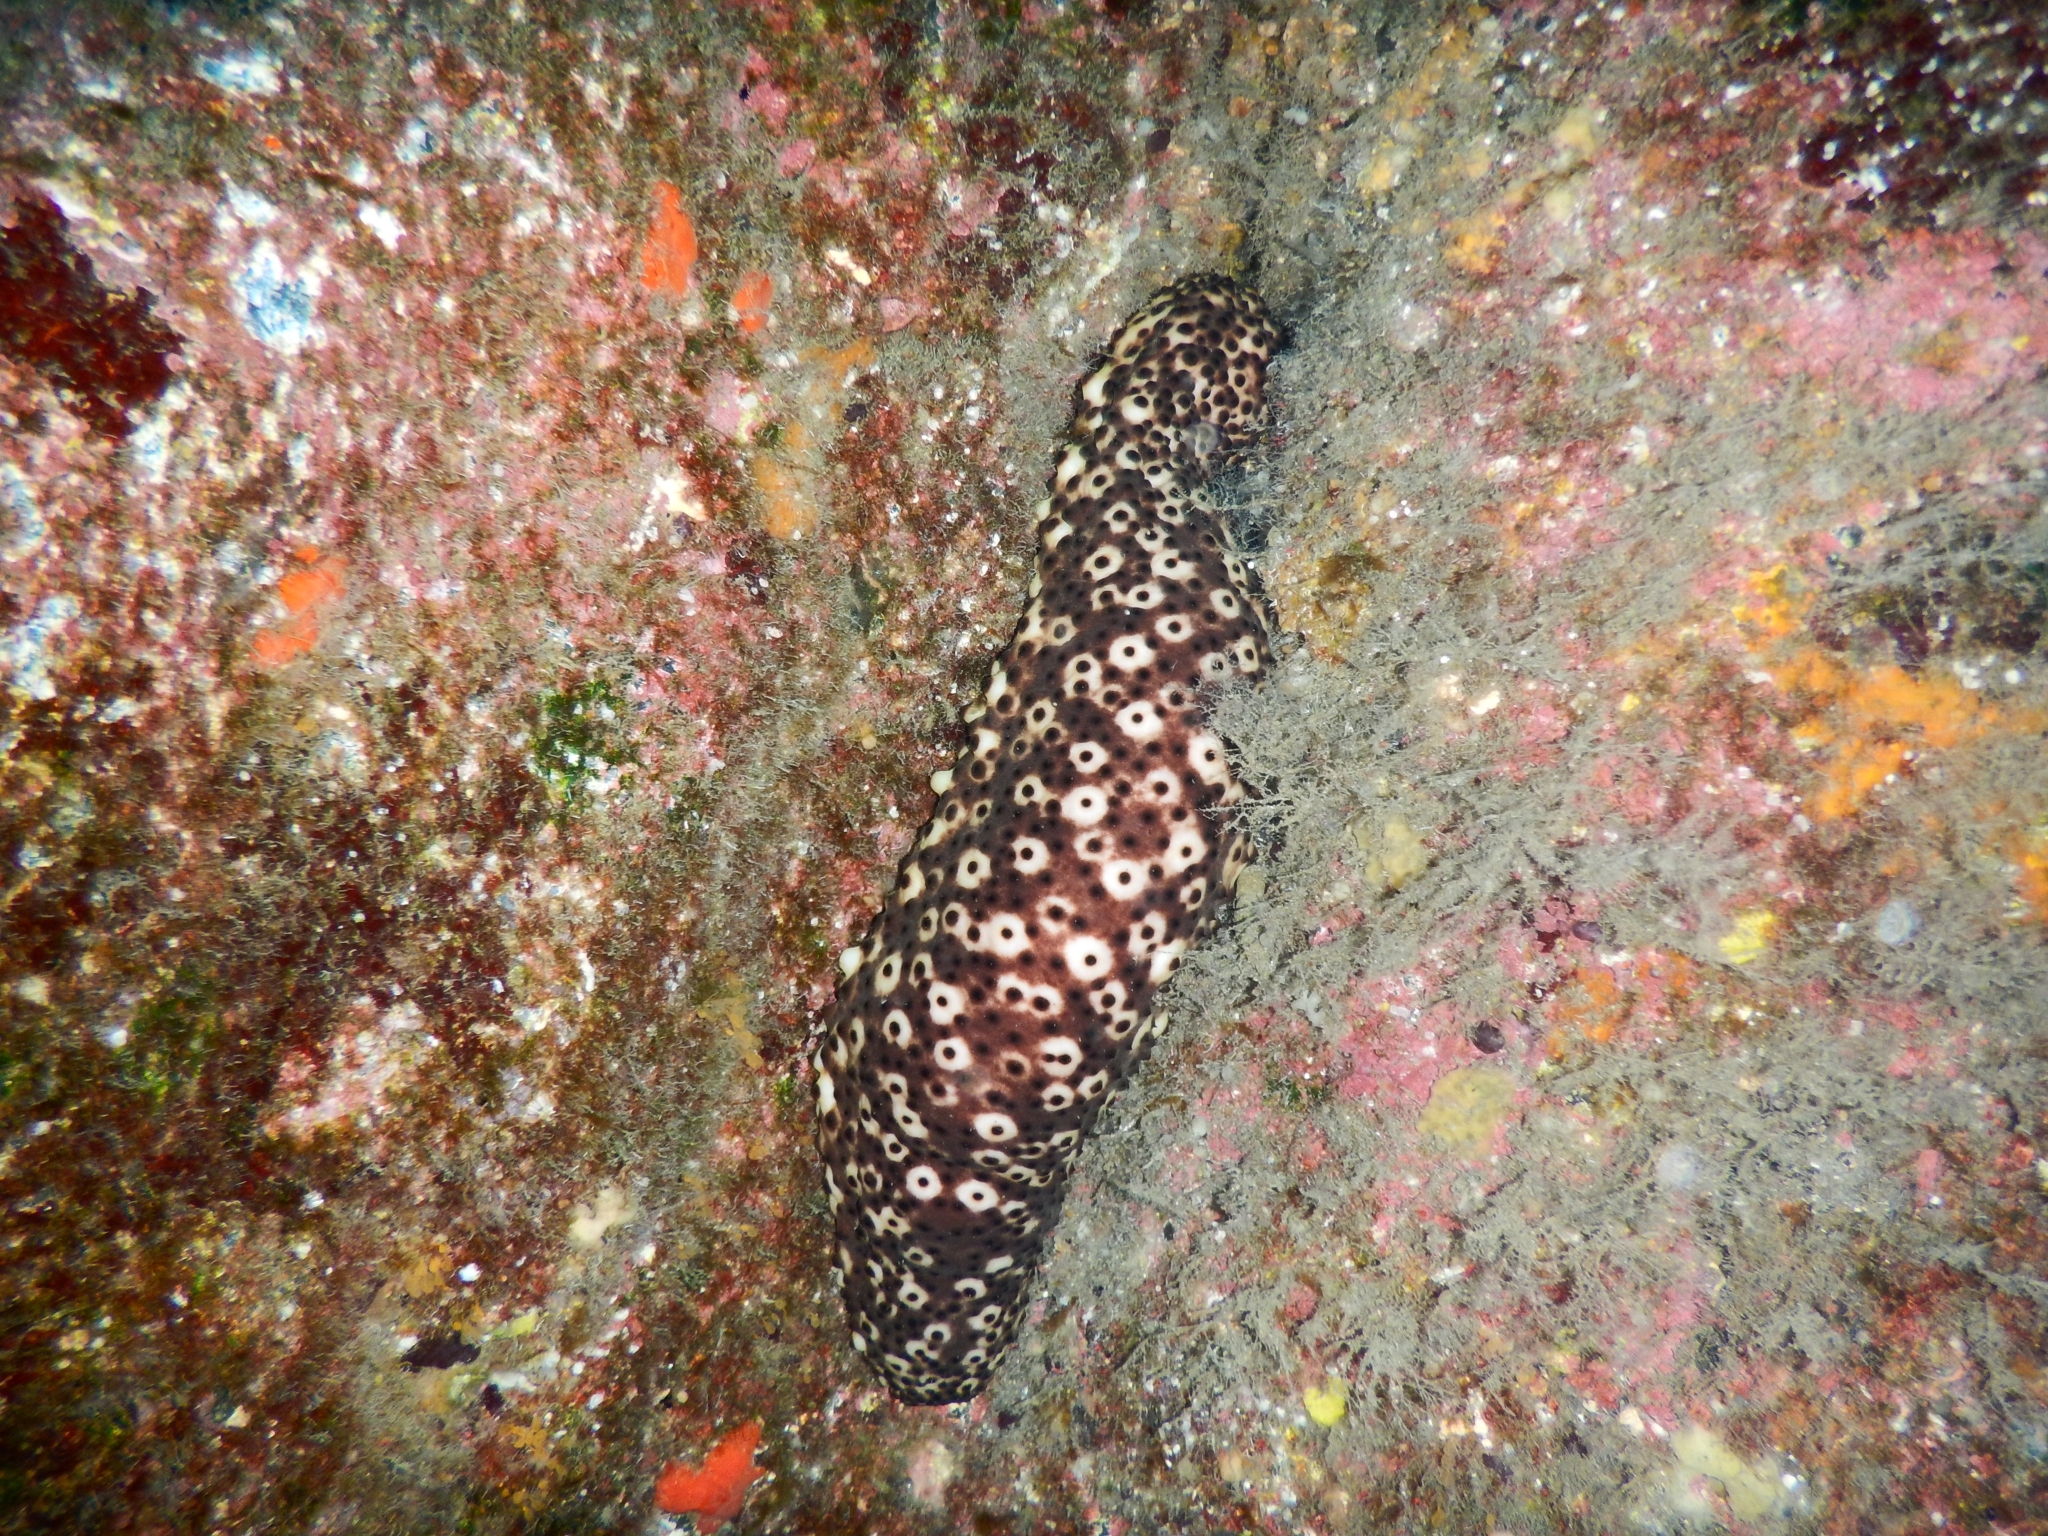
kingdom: Animalia
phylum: Echinodermata
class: Holothuroidea
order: Holothuriida
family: Holothuriidae
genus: Holothuria
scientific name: Holothuria sanctori
